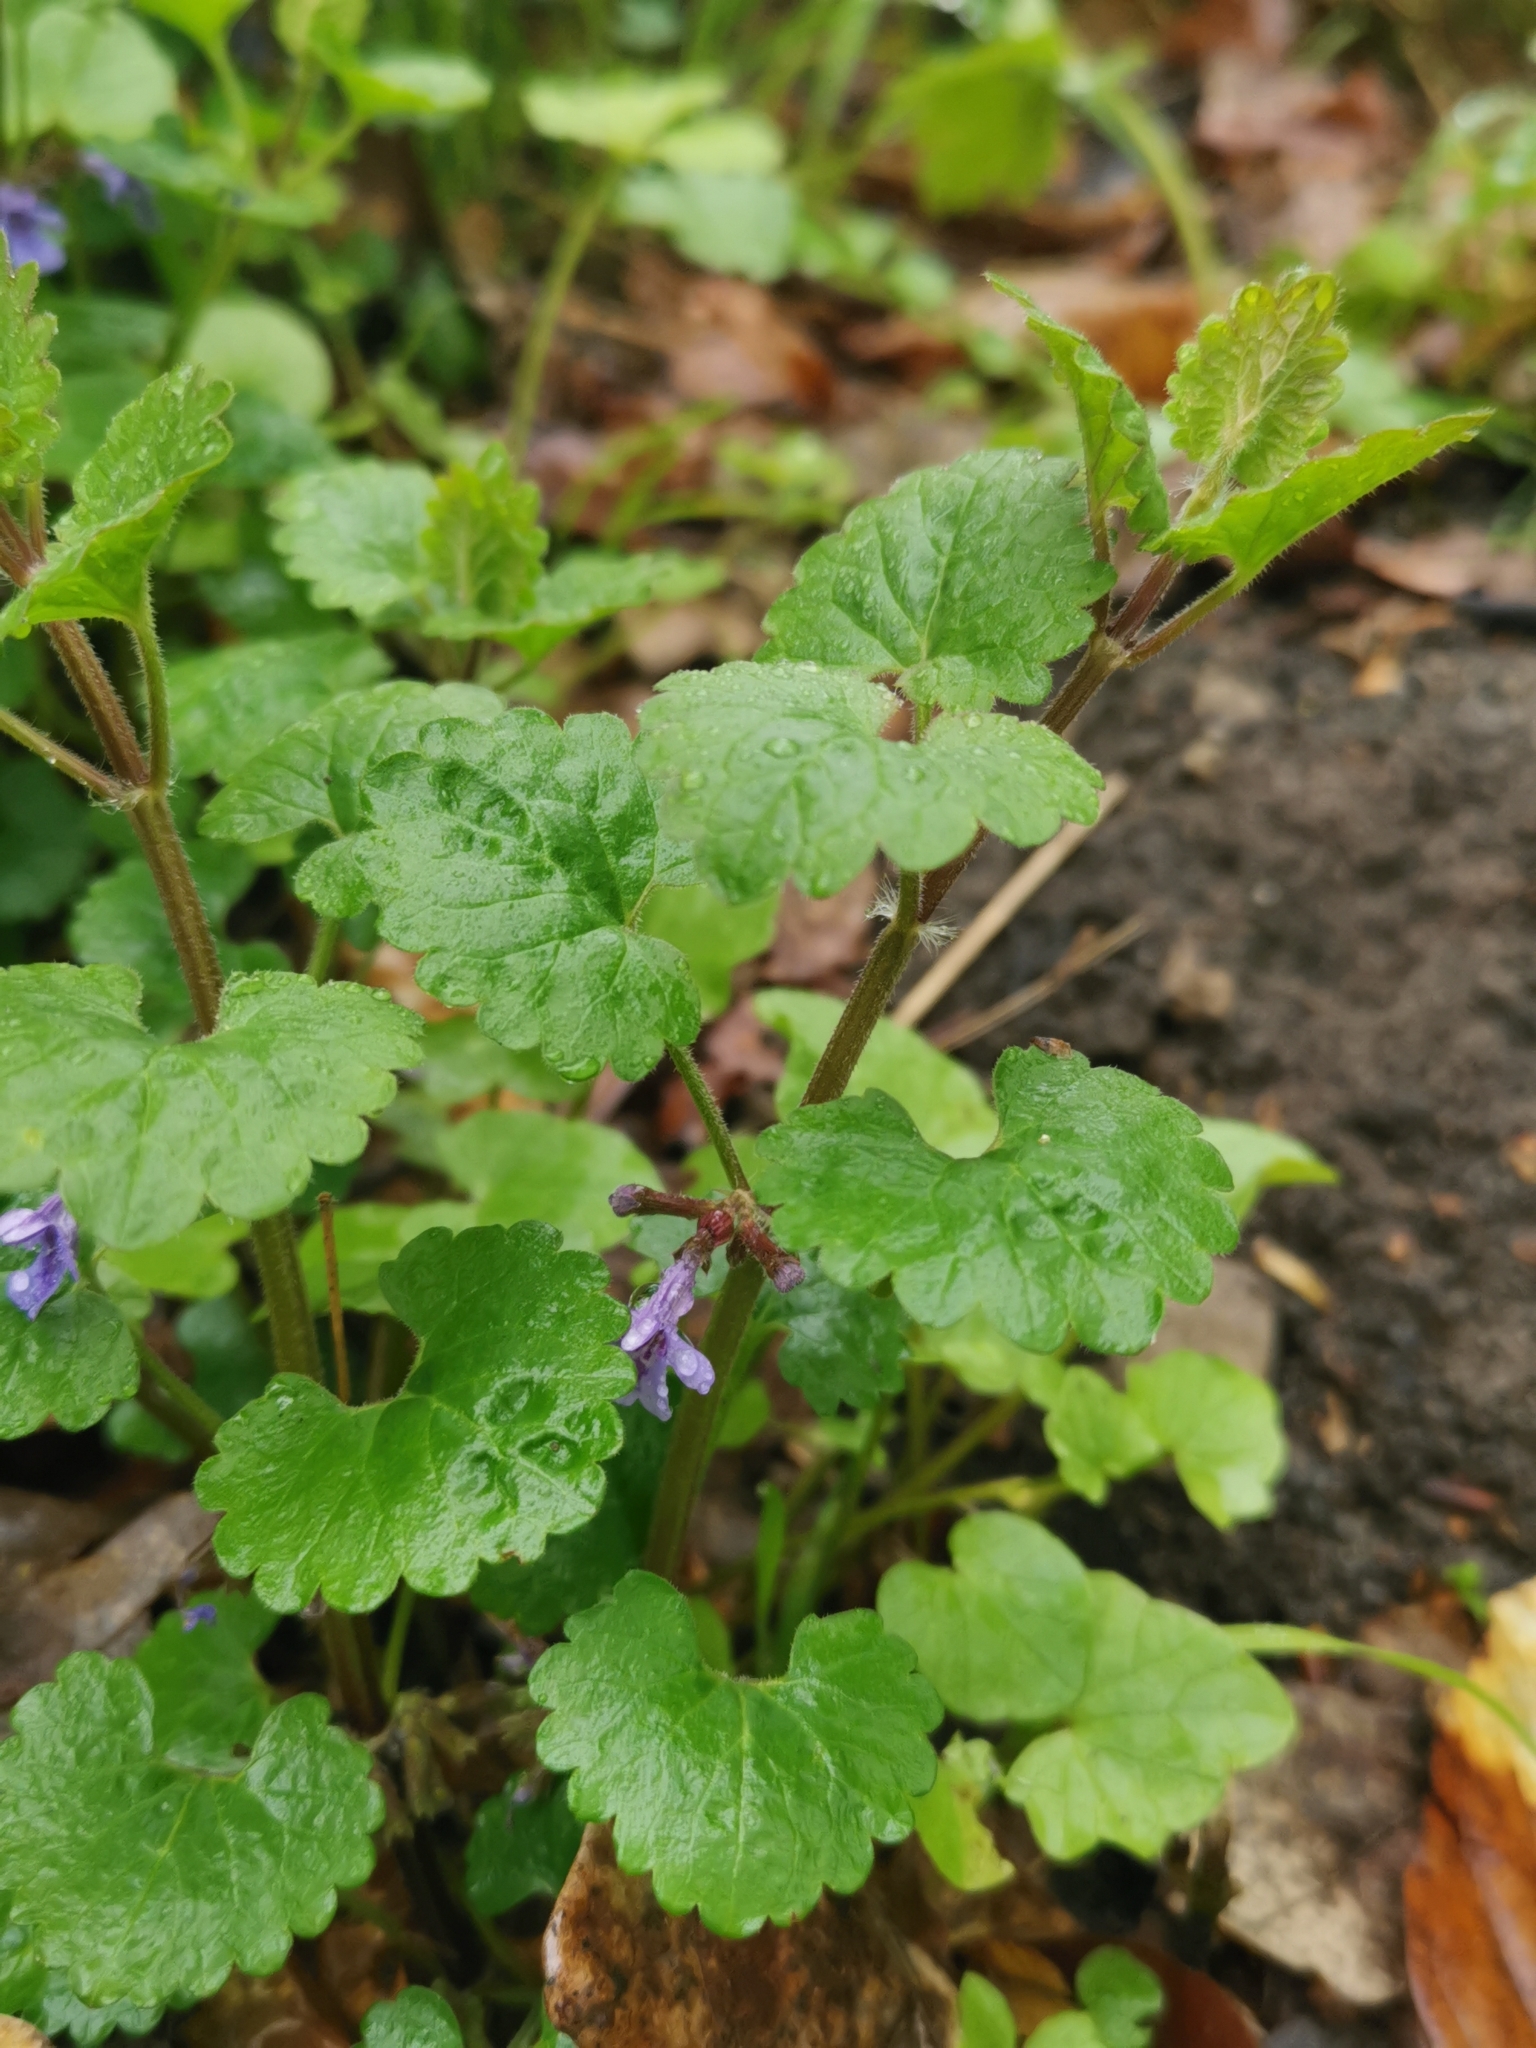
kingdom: Plantae
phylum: Tracheophyta
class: Magnoliopsida
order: Lamiales
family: Lamiaceae
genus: Glechoma
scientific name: Glechoma hederacea
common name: Ground ivy
